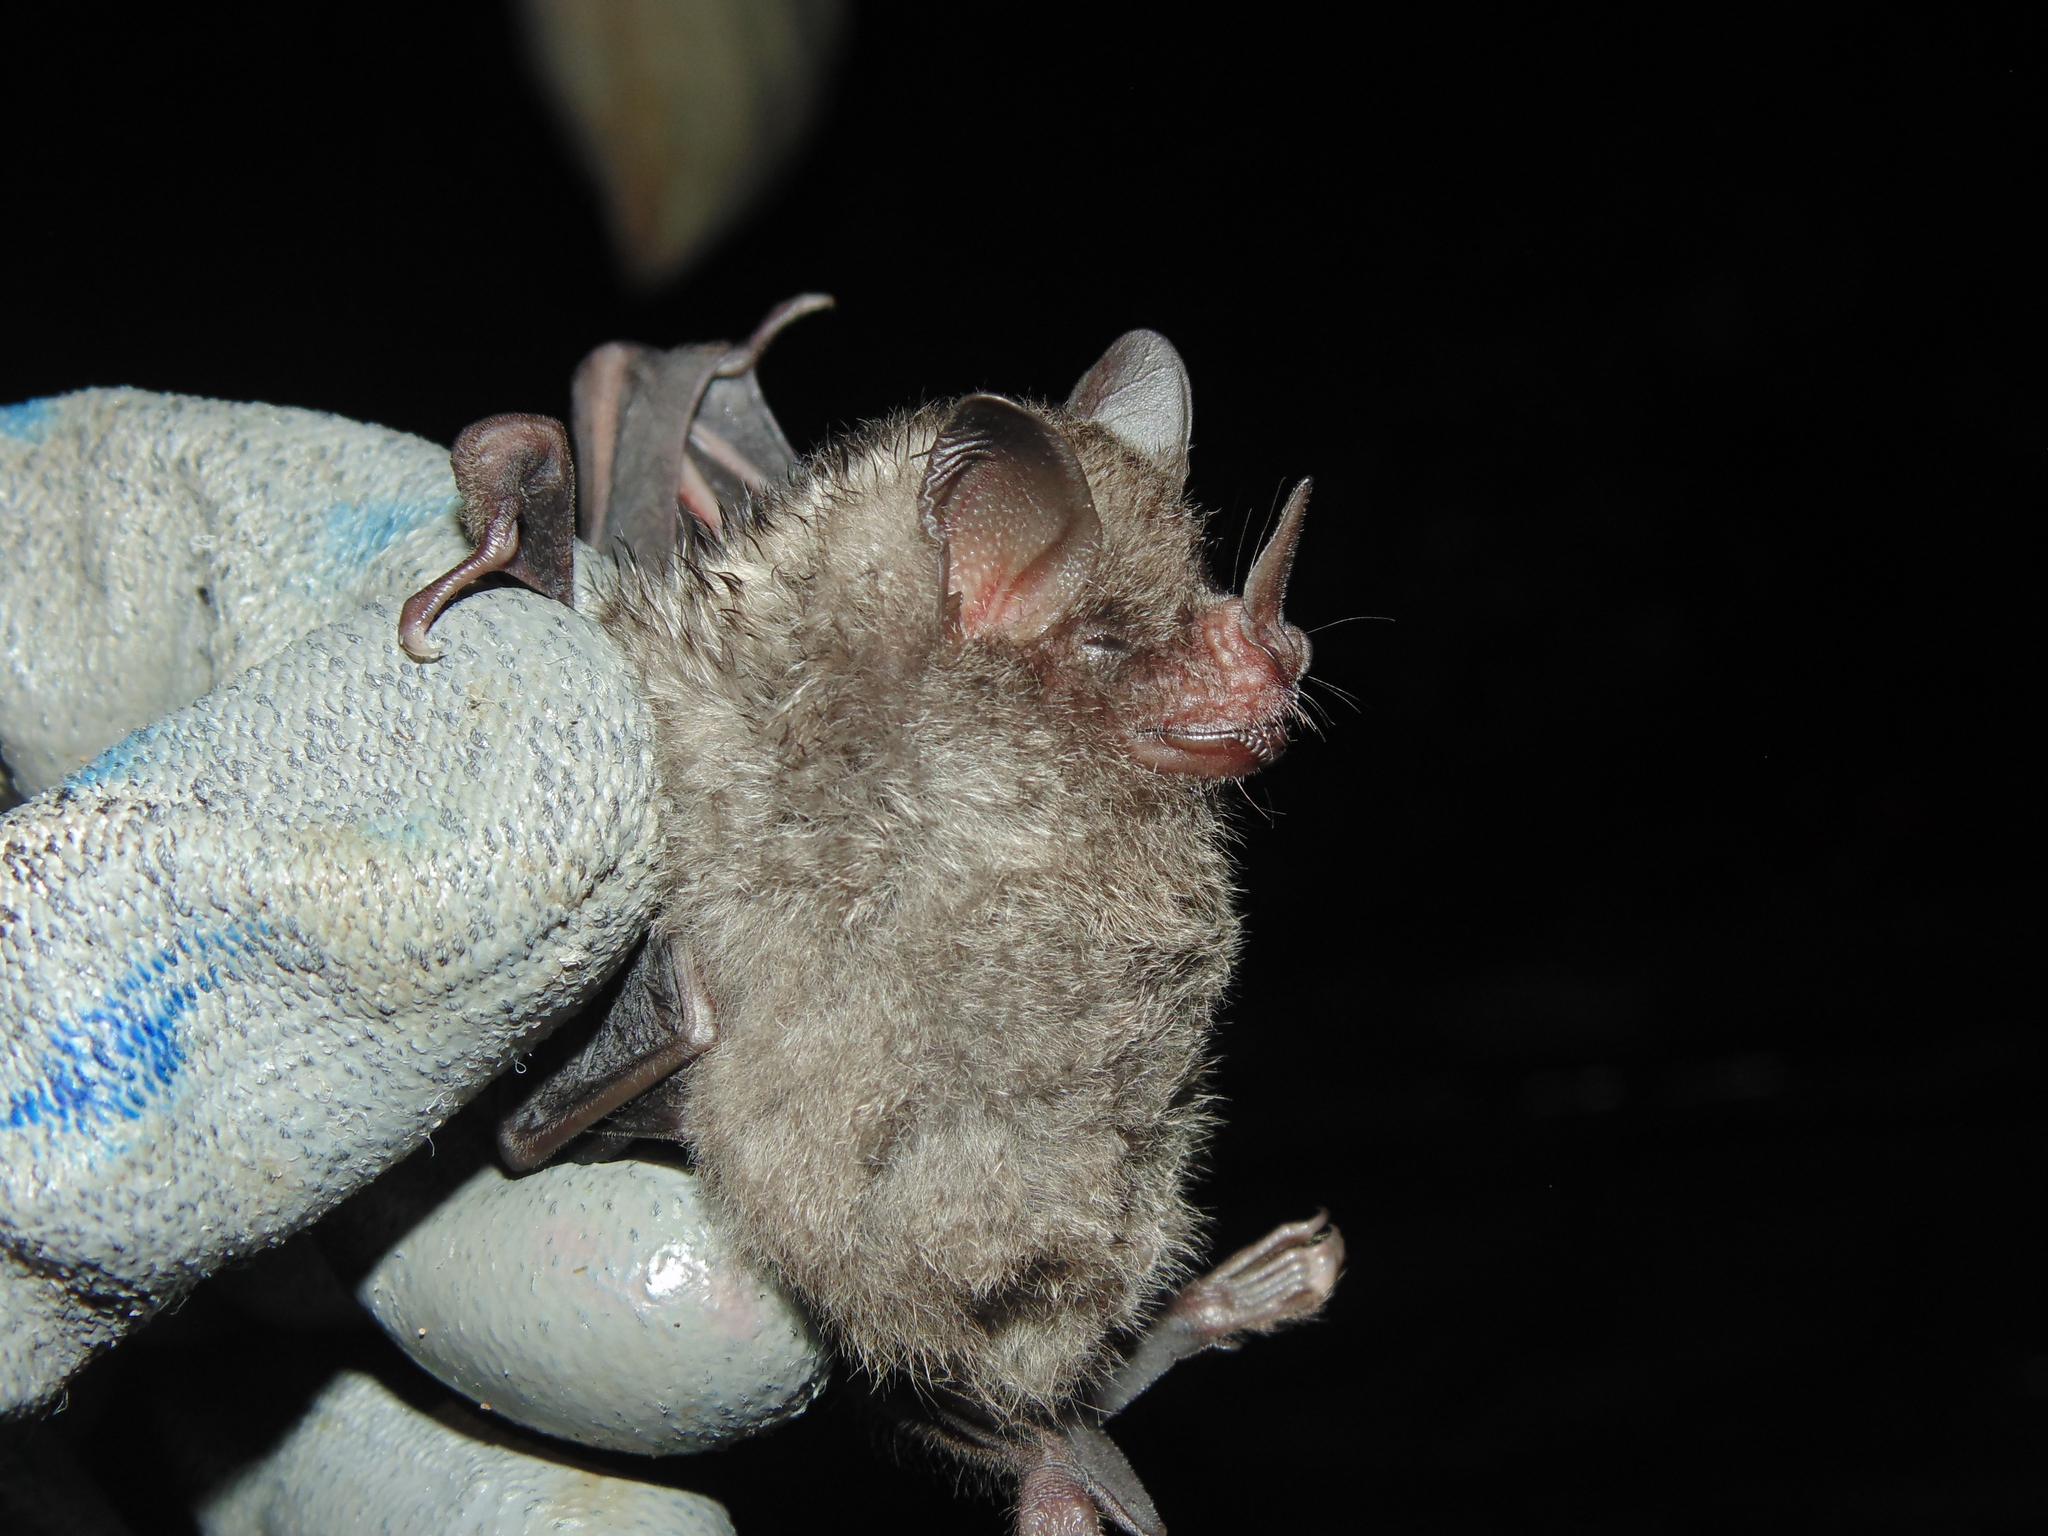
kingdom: Animalia
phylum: Chordata
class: Mammalia
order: Chiroptera
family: Phyllostomidae
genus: Carollia
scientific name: Carollia perspicillata
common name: Seba's short-tailed bat
